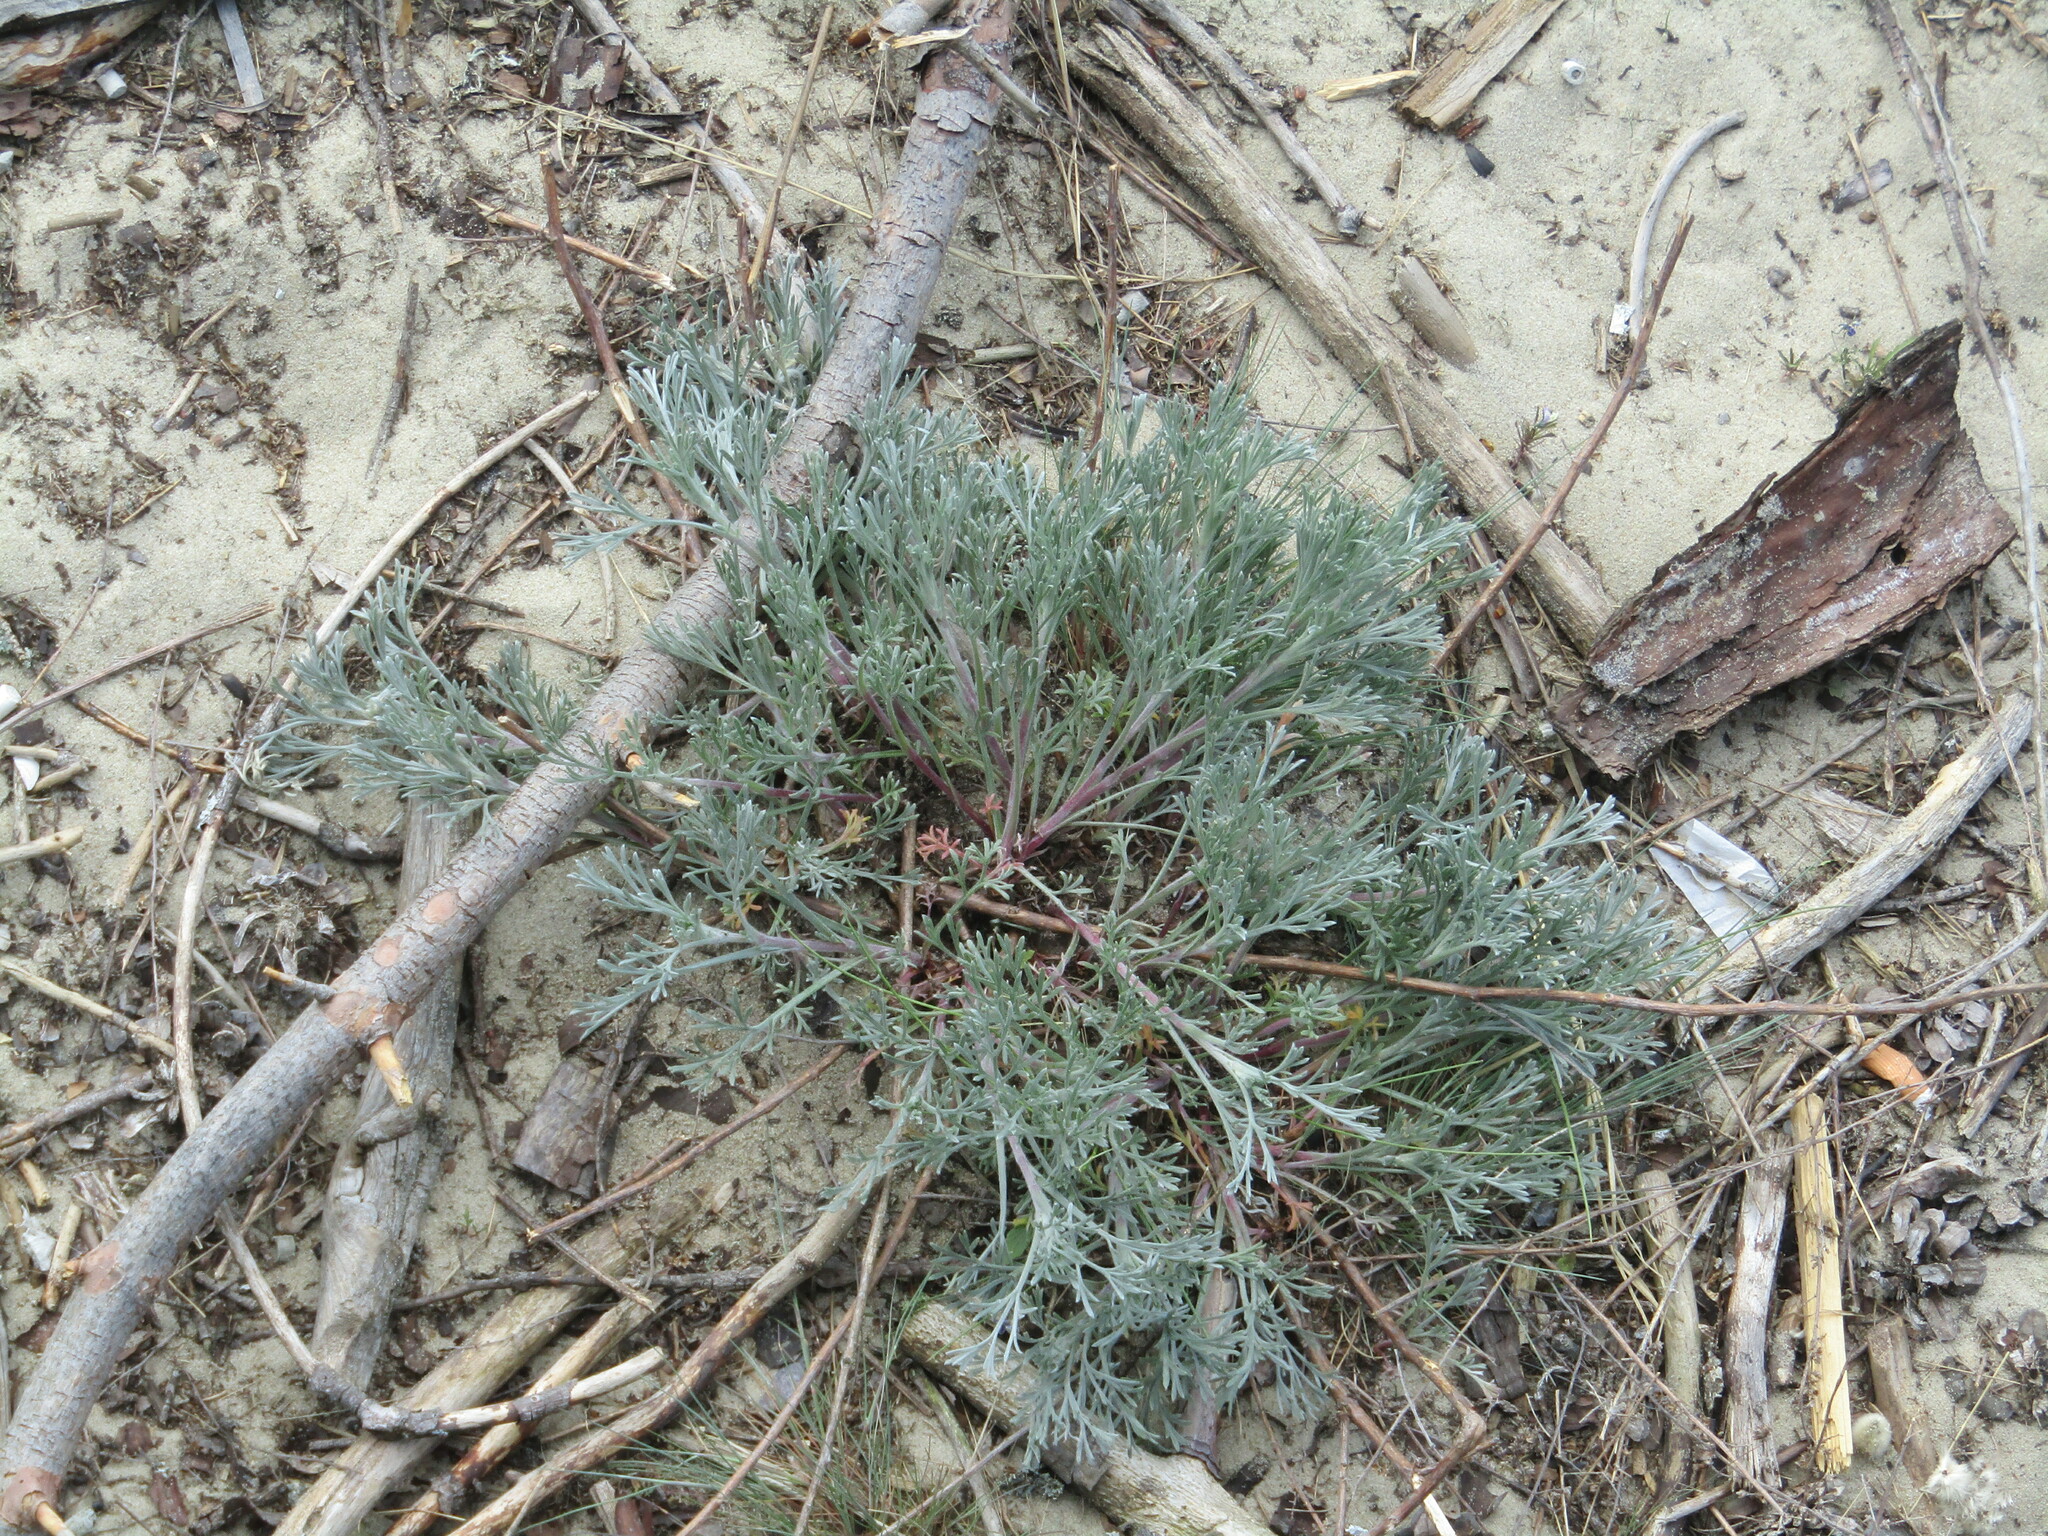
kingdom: Plantae
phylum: Tracheophyta
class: Magnoliopsida
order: Asterales
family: Asteraceae
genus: Artemisia
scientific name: Artemisia campestris
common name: Field wormwood
